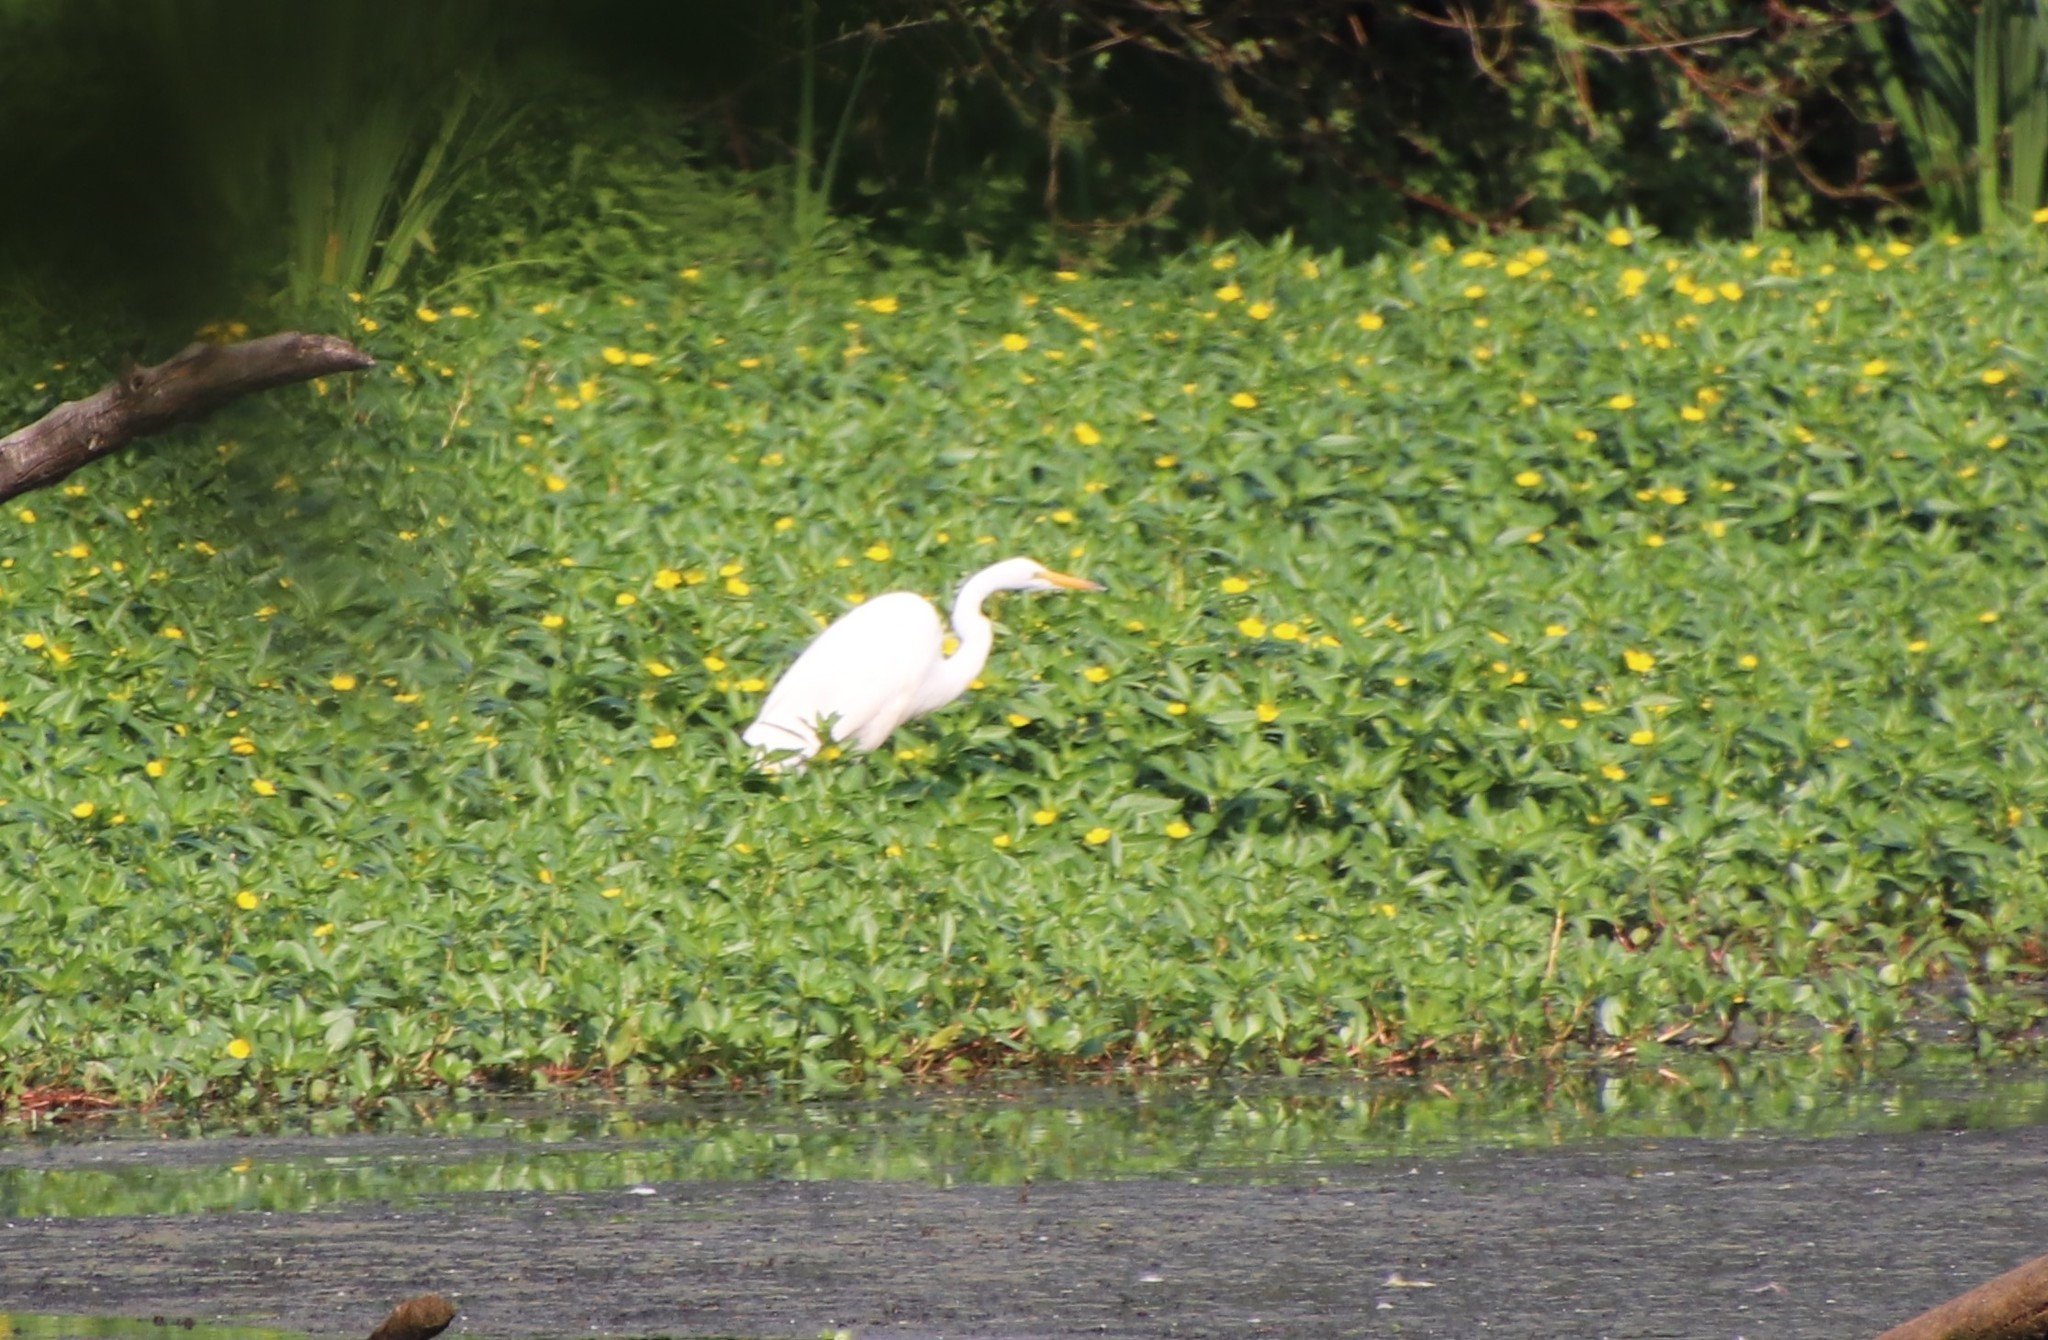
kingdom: Animalia
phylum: Chordata
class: Aves
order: Pelecaniformes
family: Ardeidae
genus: Ardea
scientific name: Ardea alba
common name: Great egret
